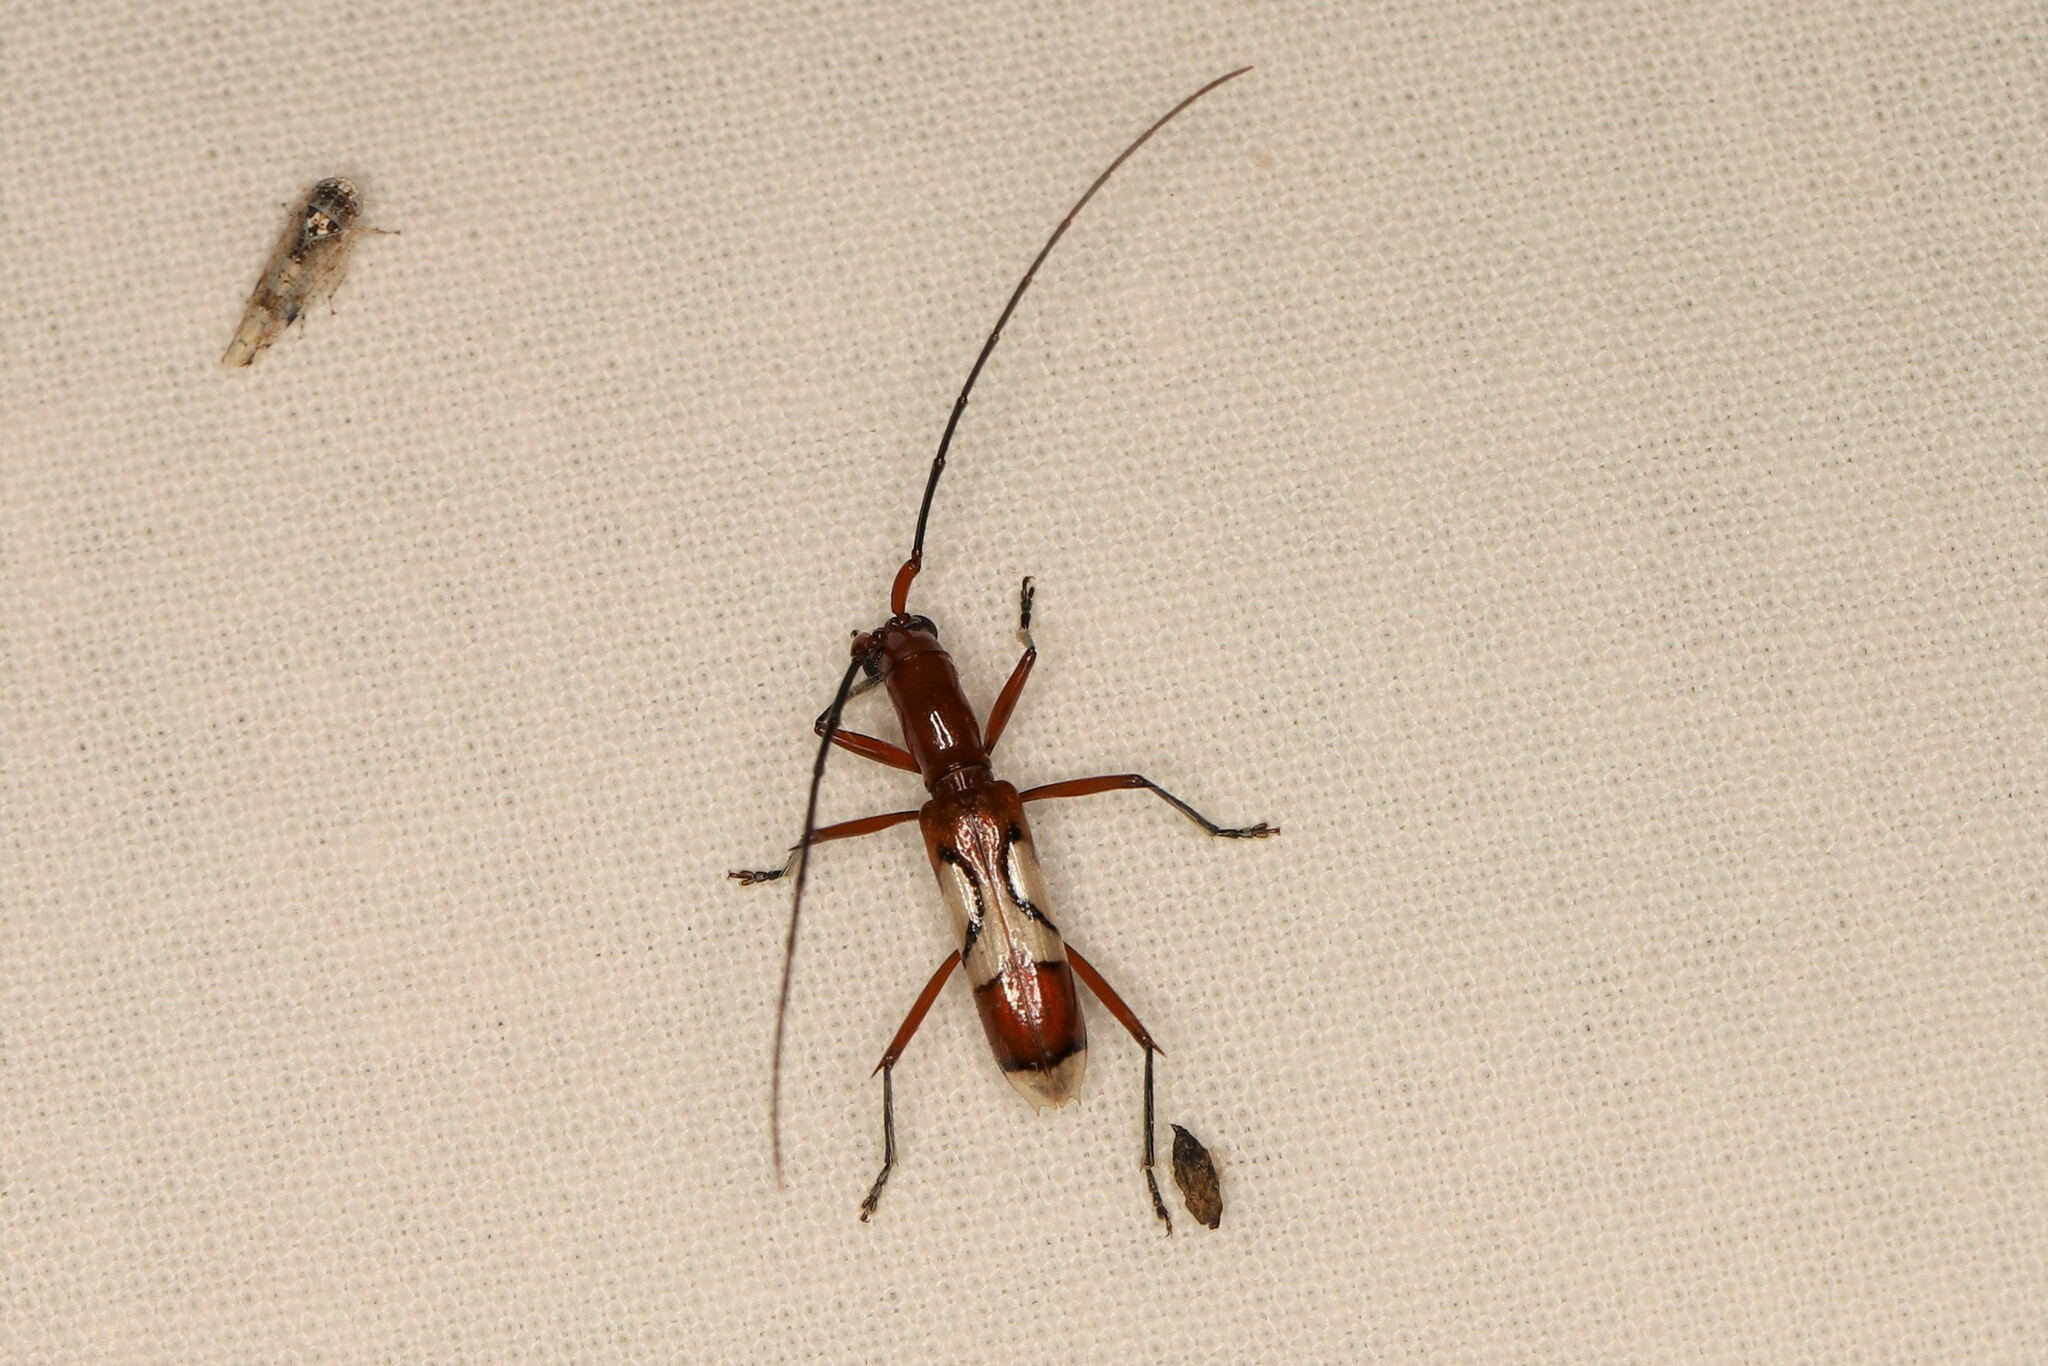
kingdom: Animalia
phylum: Arthropoda
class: Insecta
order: Coleoptera
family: Cerambycidae
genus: Hexoplon
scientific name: Hexoplon venus
